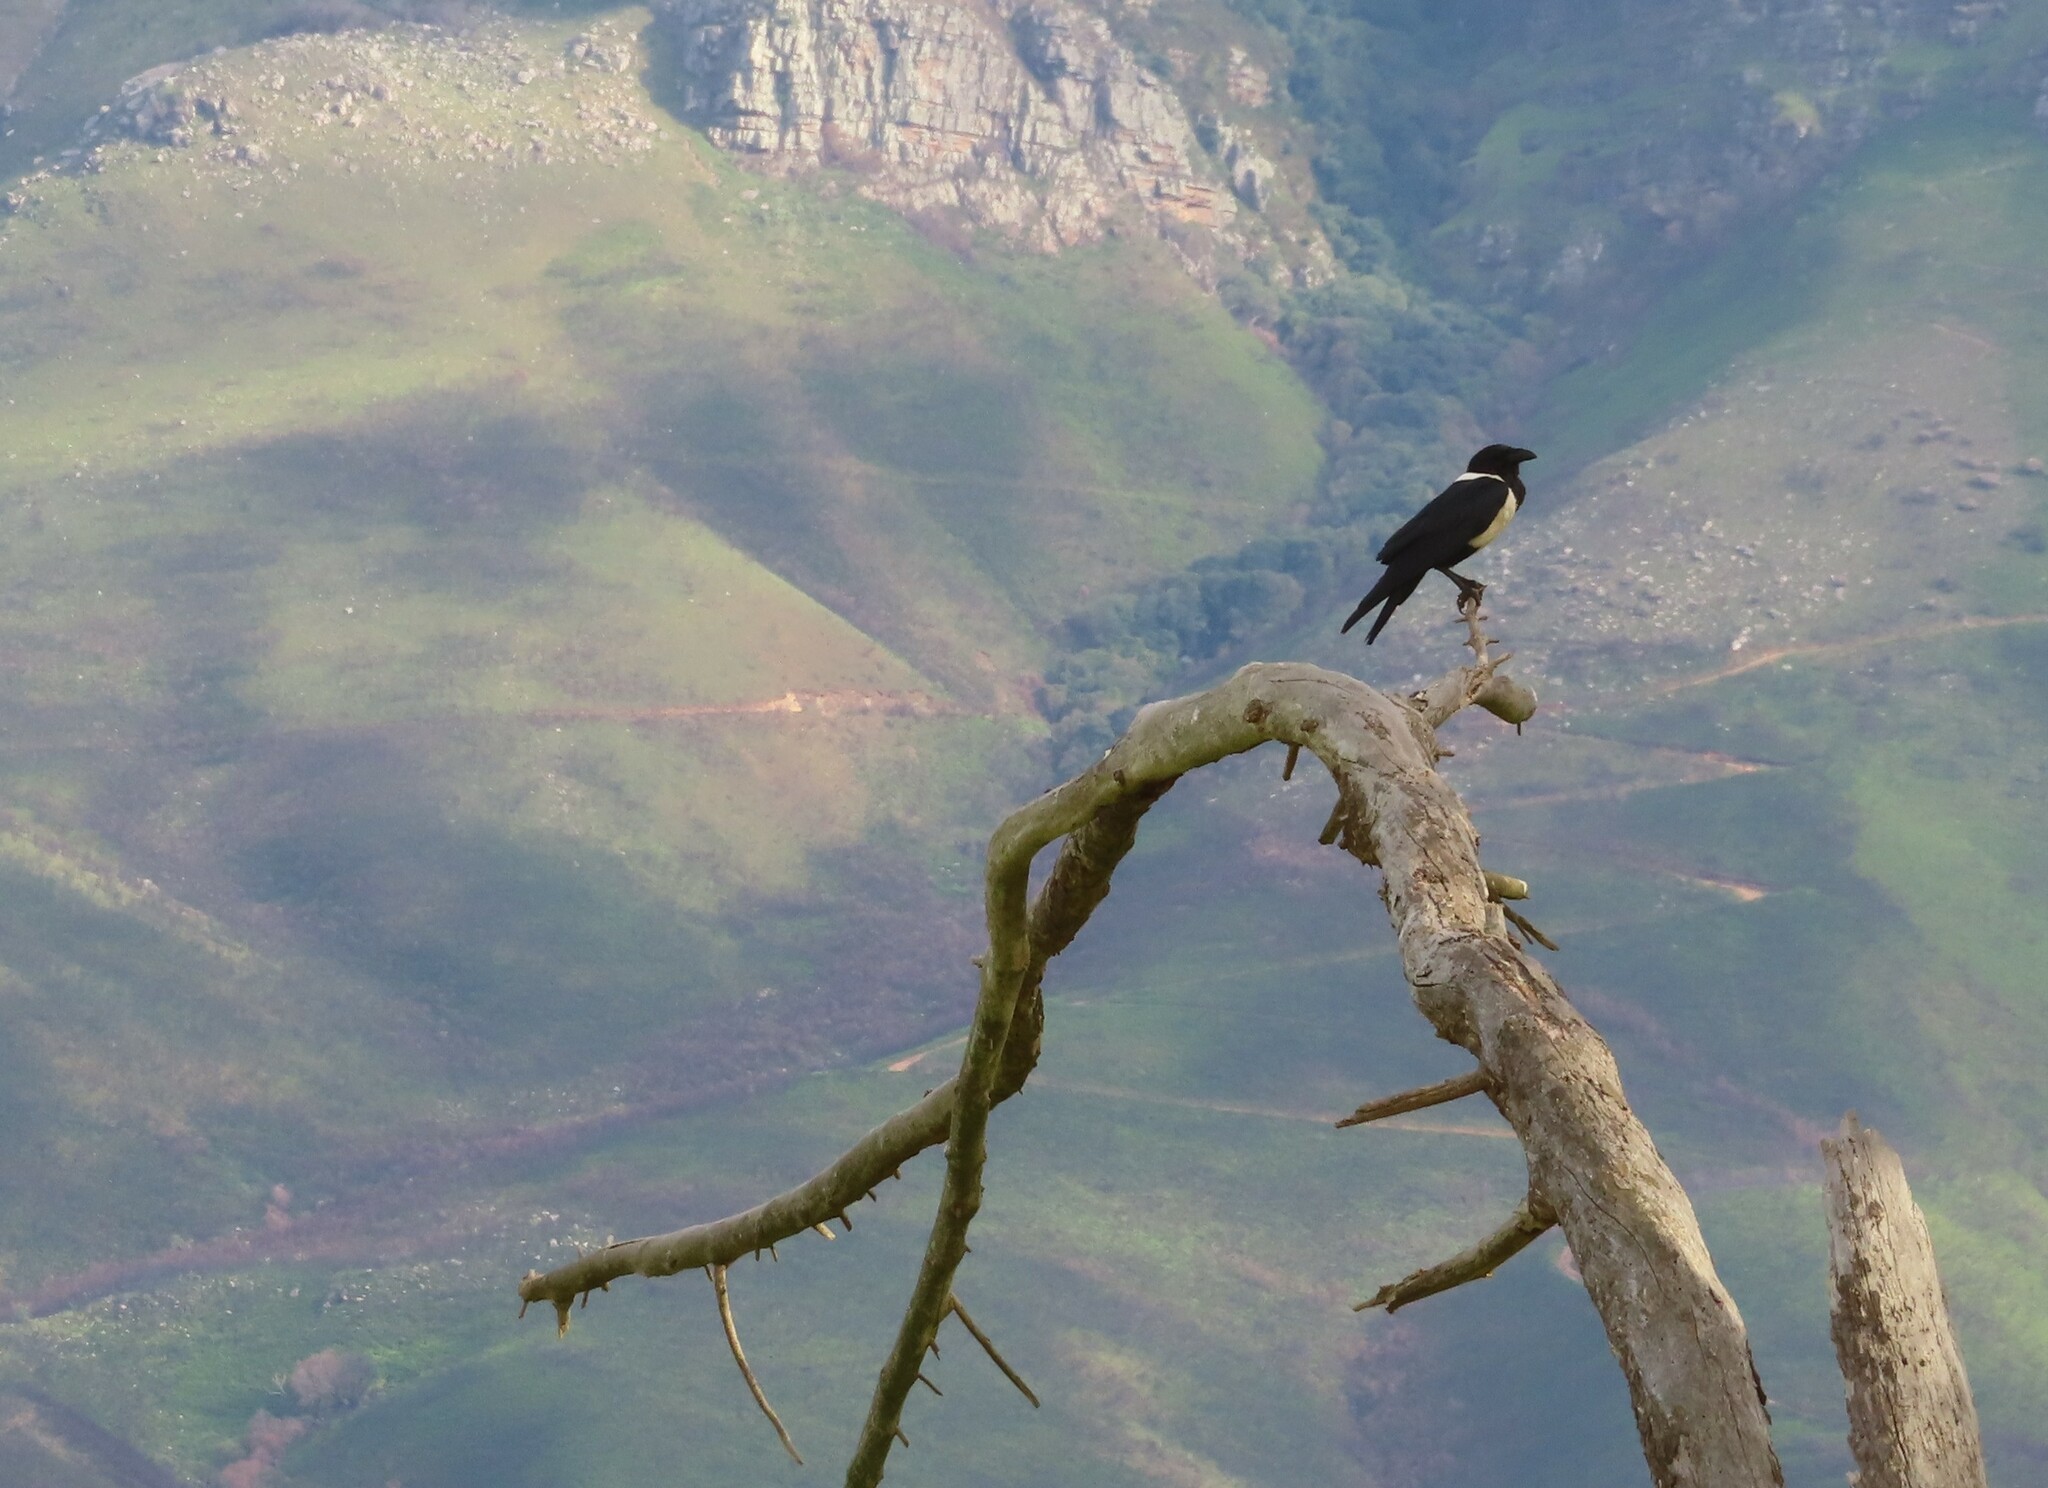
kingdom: Animalia
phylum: Chordata
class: Aves
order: Passeriformes
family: Corvidae
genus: Corvus
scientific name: Corvus albus
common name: Pied crow
